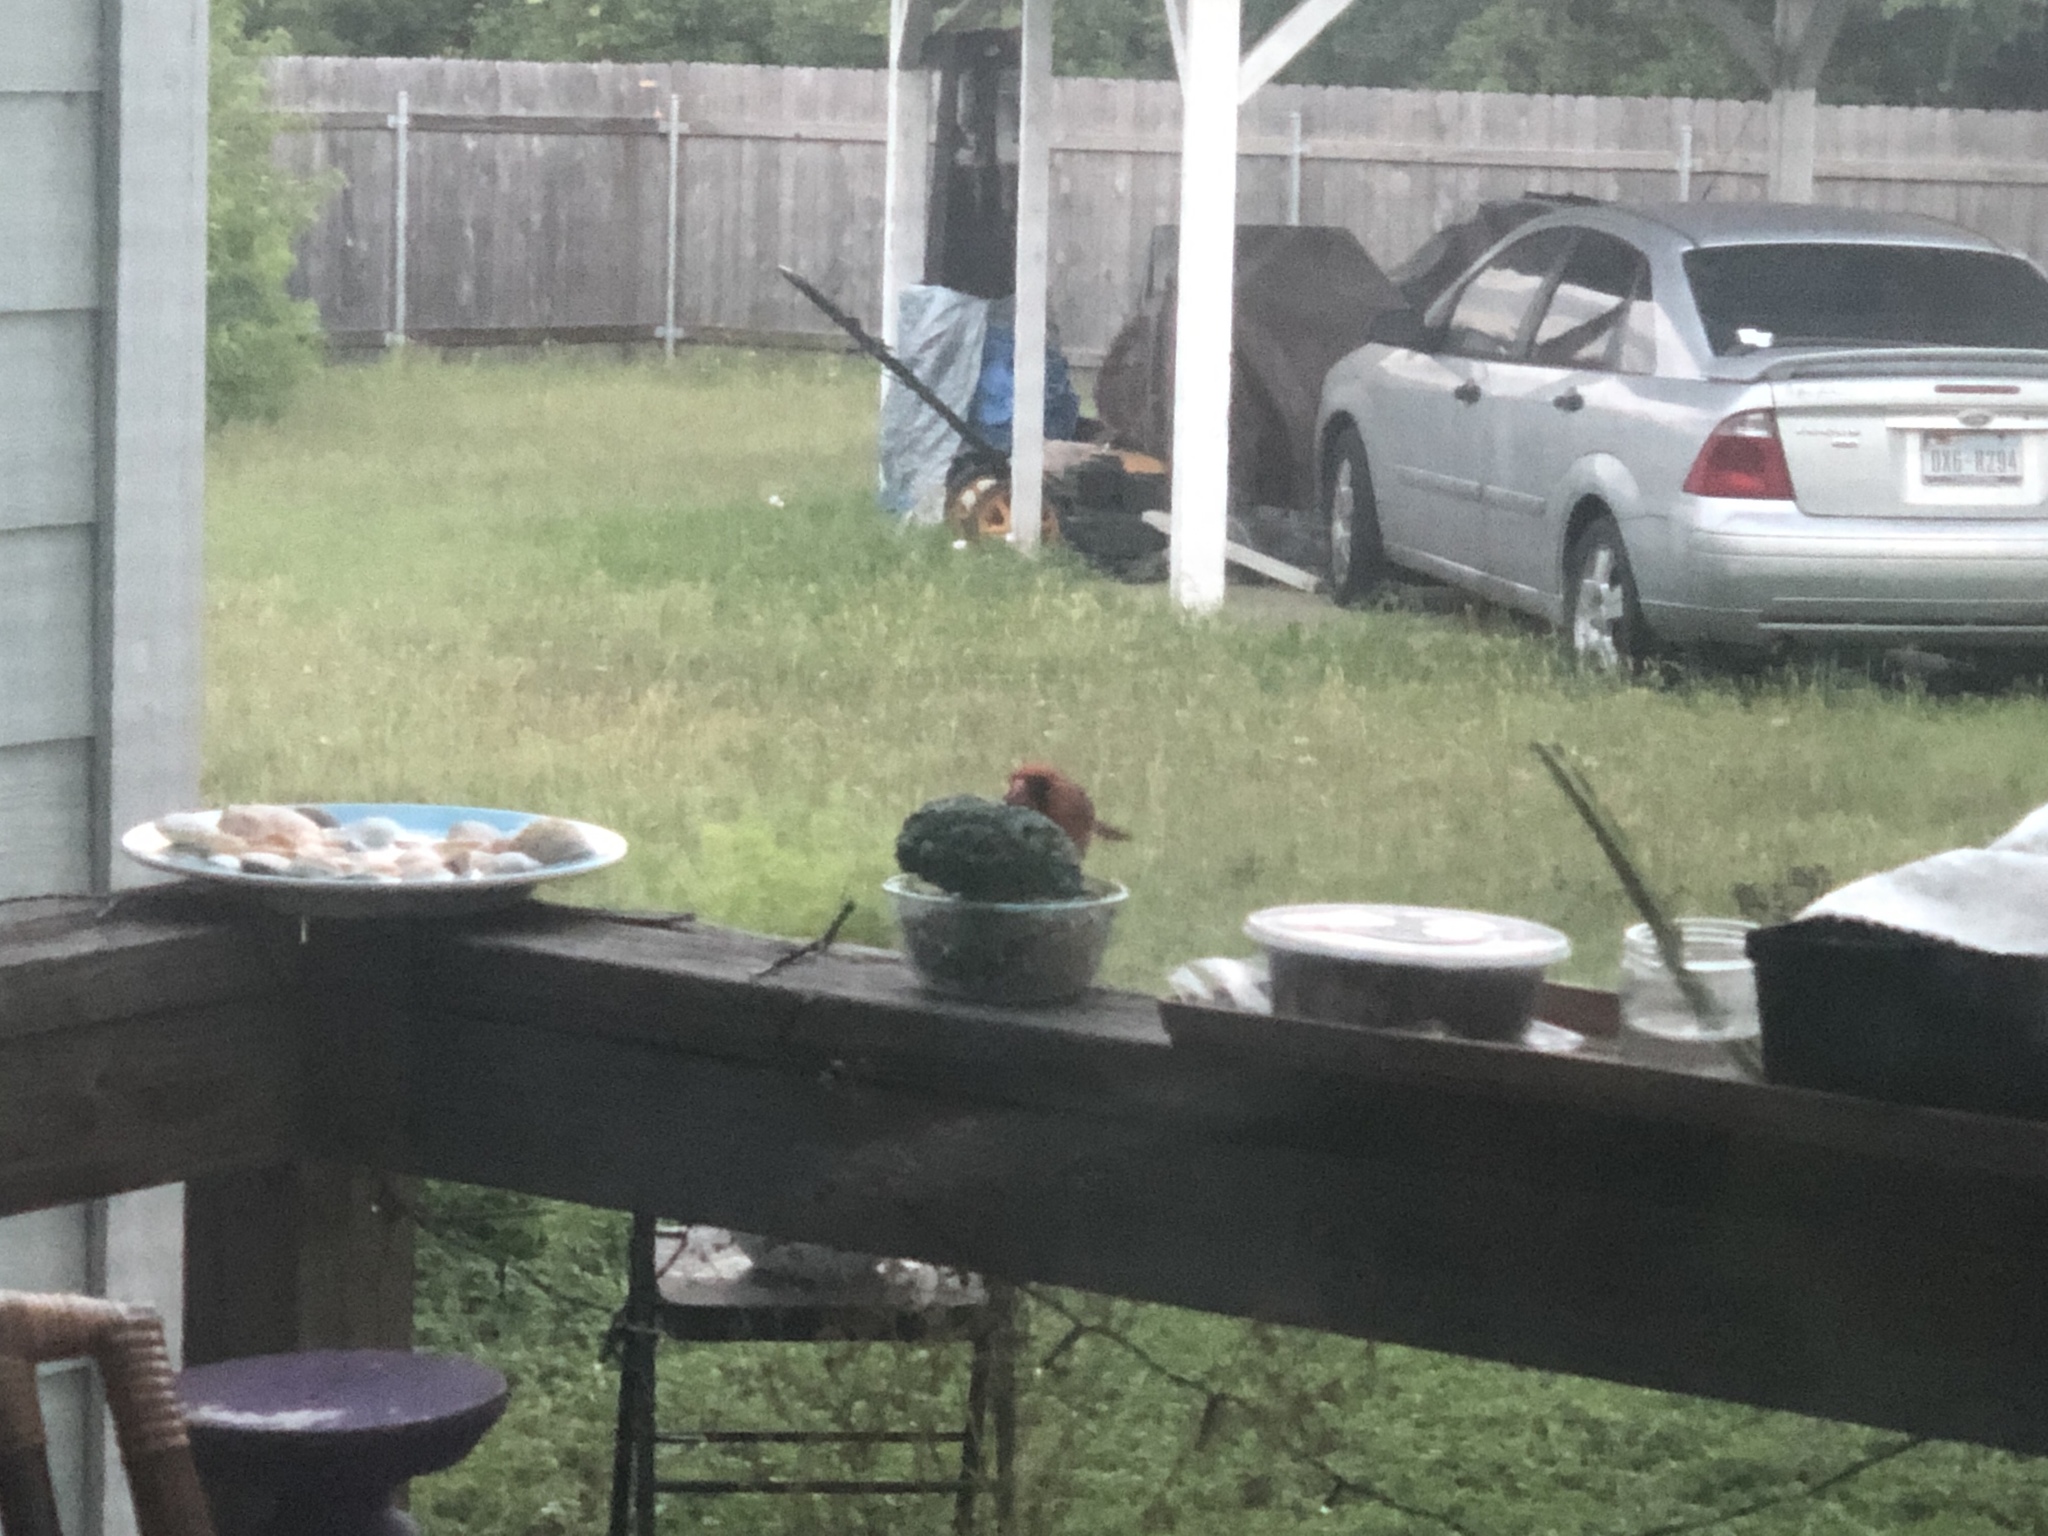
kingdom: Animalia
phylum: Chordata
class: Aves
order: Passeriformes
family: Cardinalidae
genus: Cardinalis
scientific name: Cardinalis cardinalis
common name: Northern cardinal
